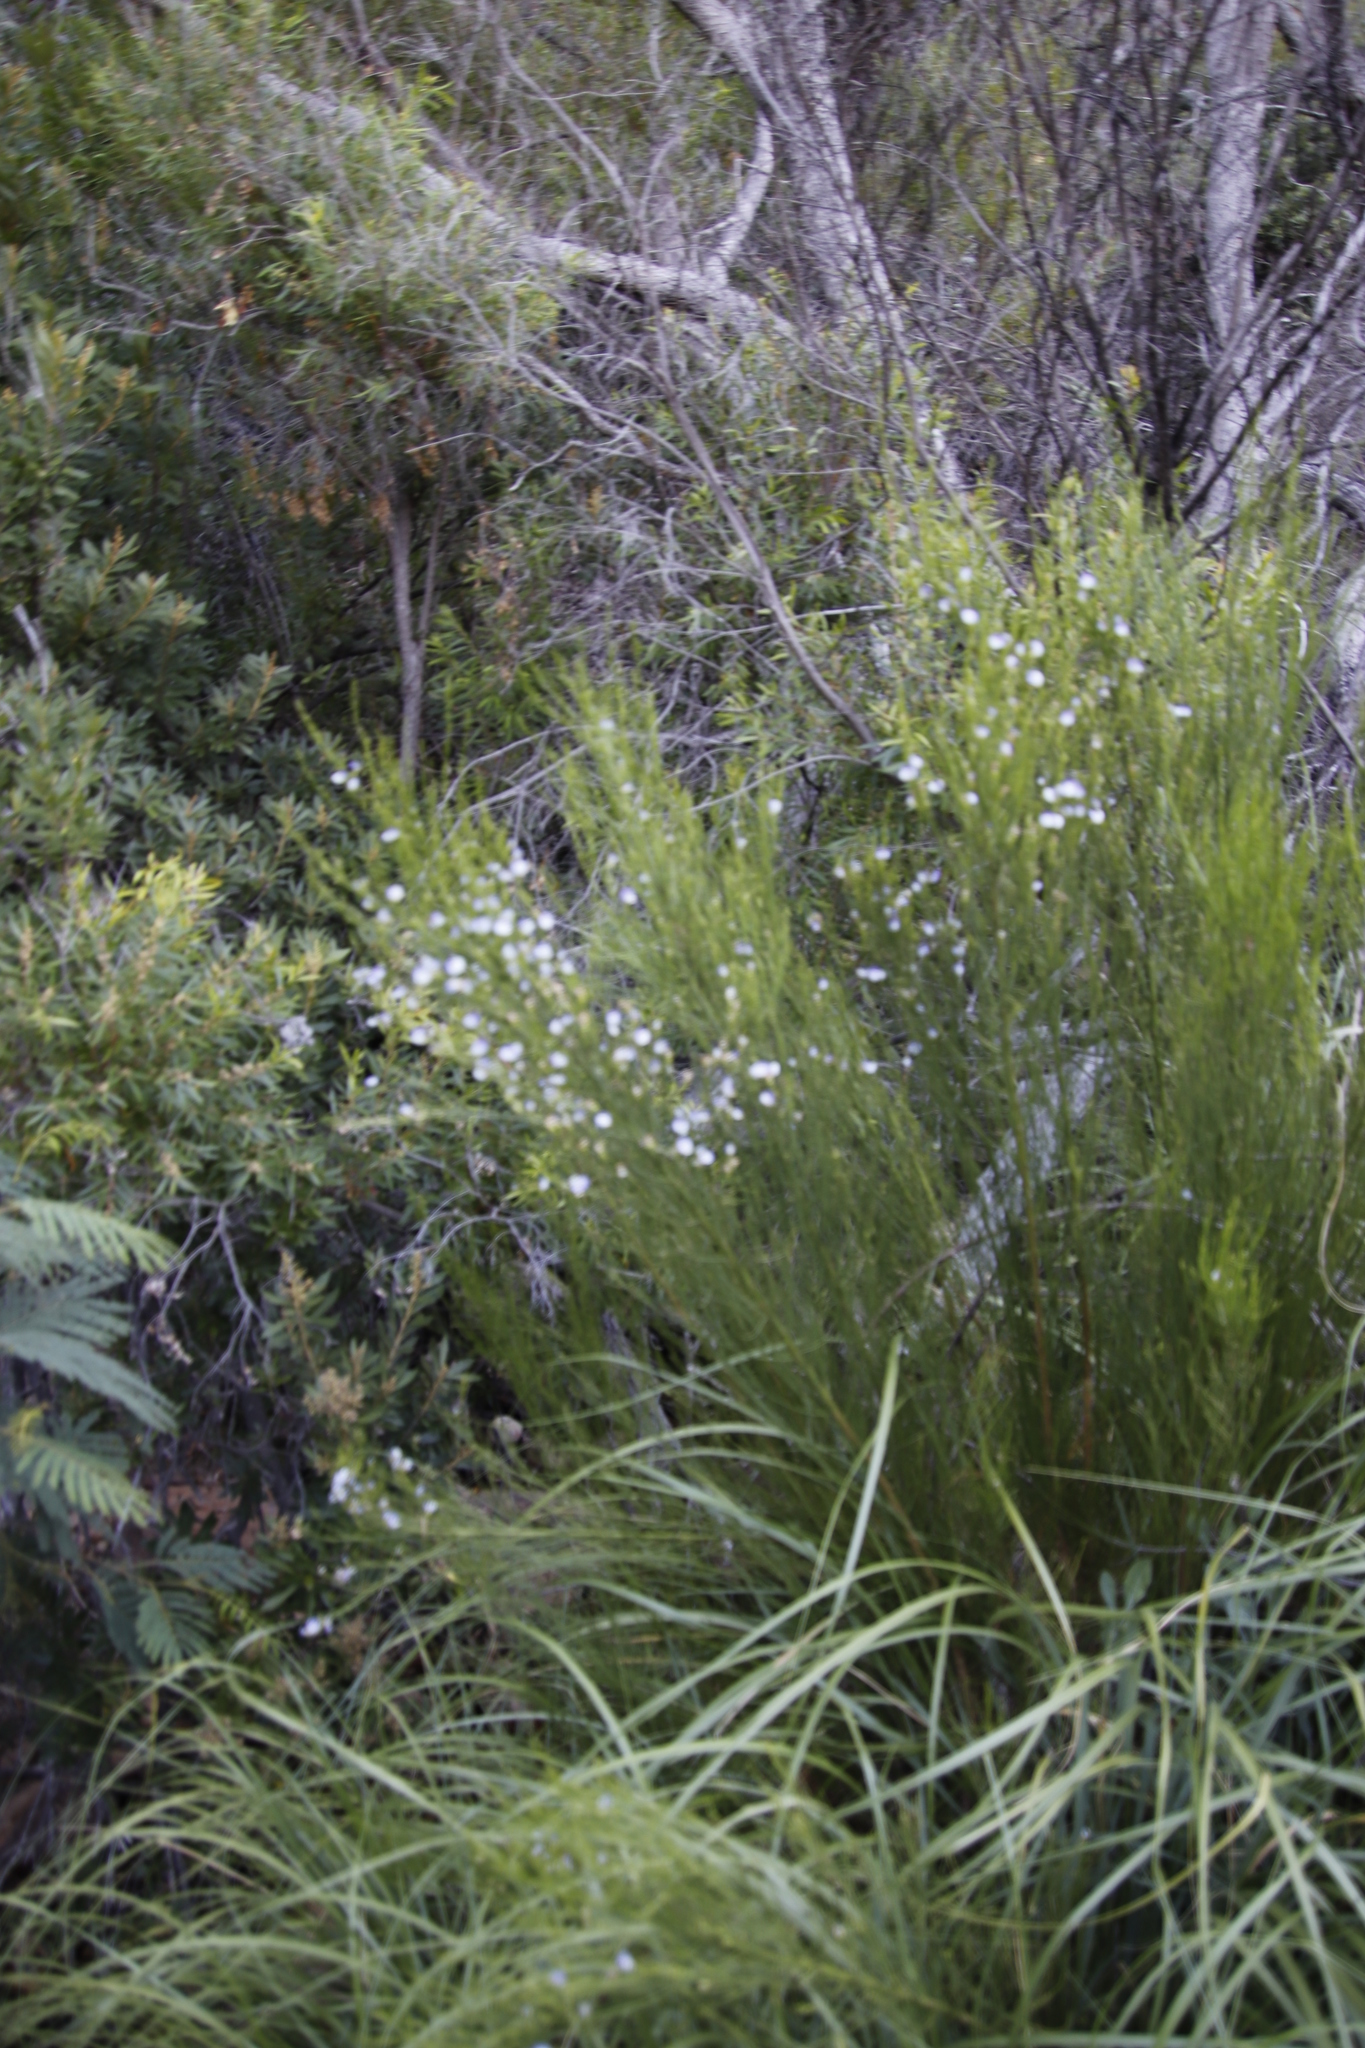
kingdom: Plantae
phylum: Tracheophyta
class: Magnoliopsida
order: Fabales
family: Fabaceae
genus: Psoralea
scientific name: Psoralea usitata
